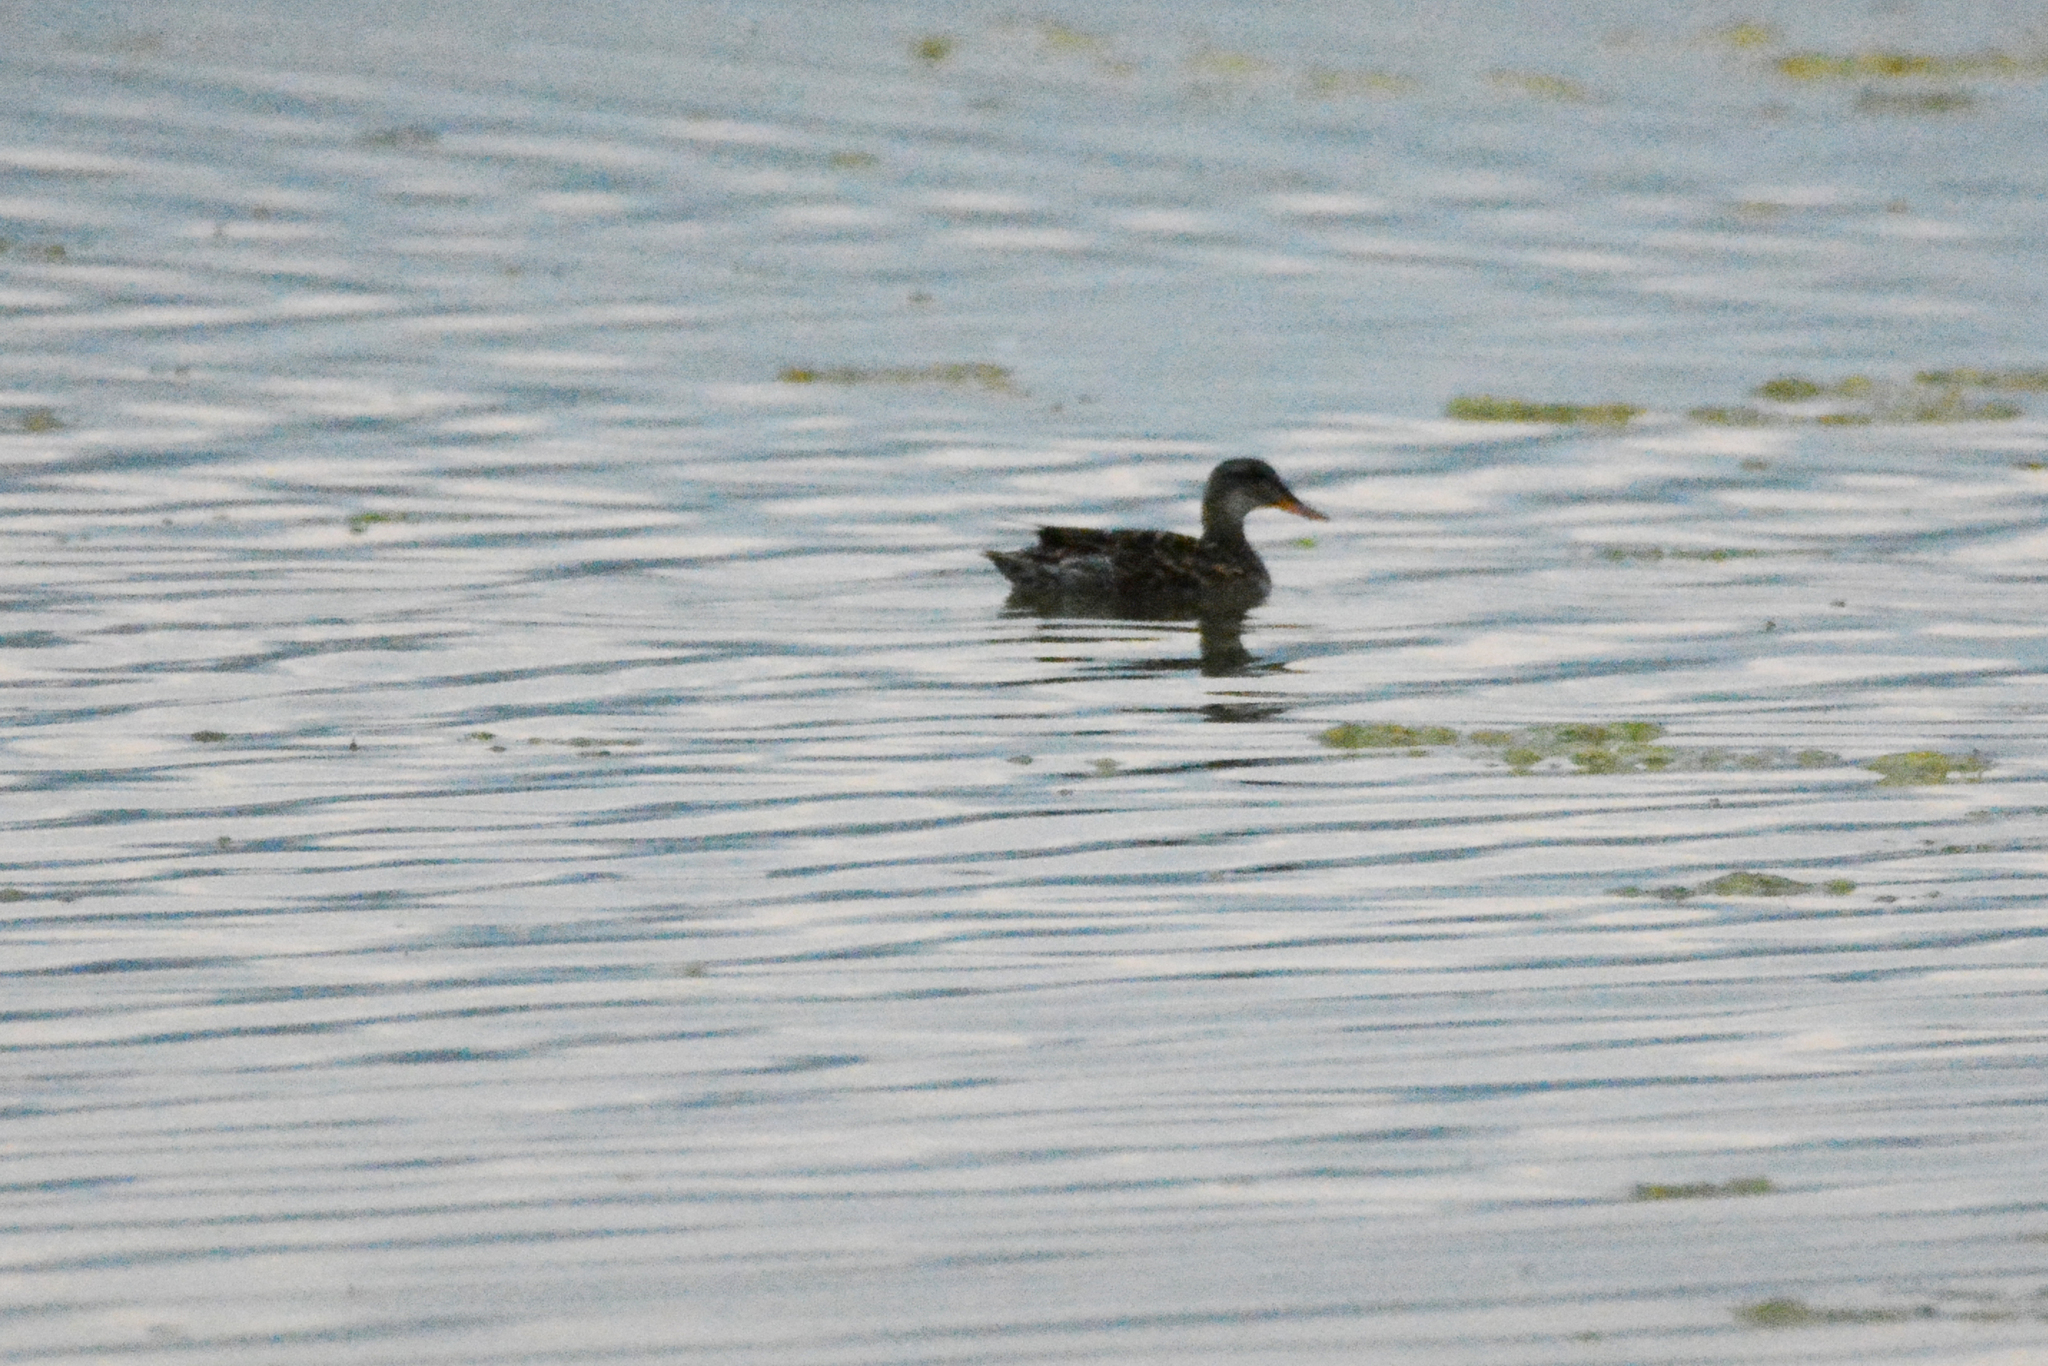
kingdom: Animalia
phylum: Chordata
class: Aves
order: Anseriformes
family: Anatidae
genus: Mareca
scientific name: Mareca strepera
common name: Gadwall
